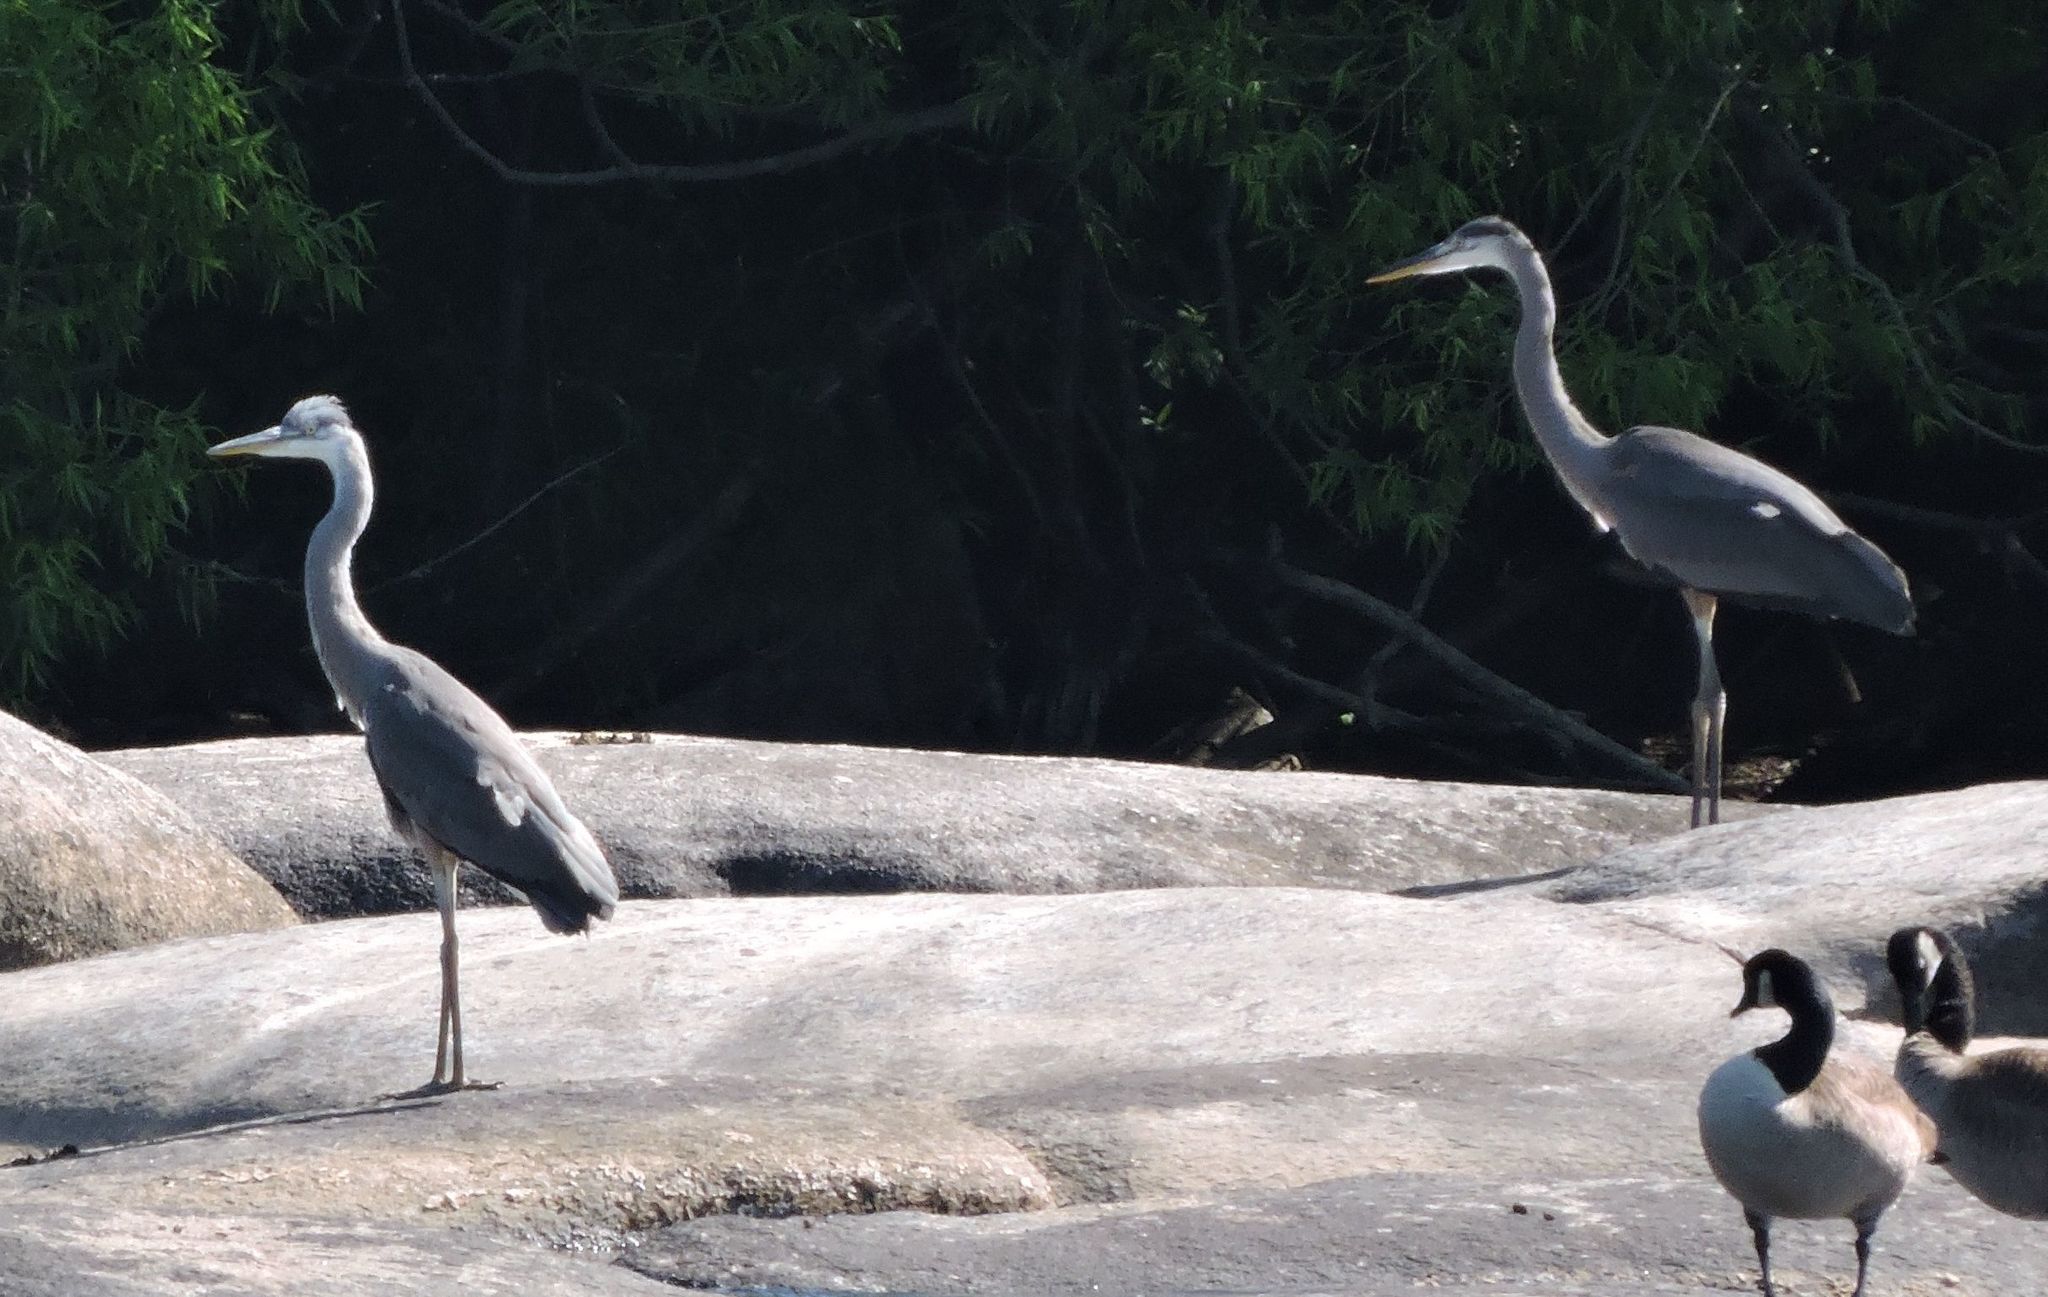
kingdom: Animalia
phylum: Chordata
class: Aves
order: Pelecaniformes
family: Ardeidae
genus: Ardea
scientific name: Ardea herodias
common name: Great blue heron
